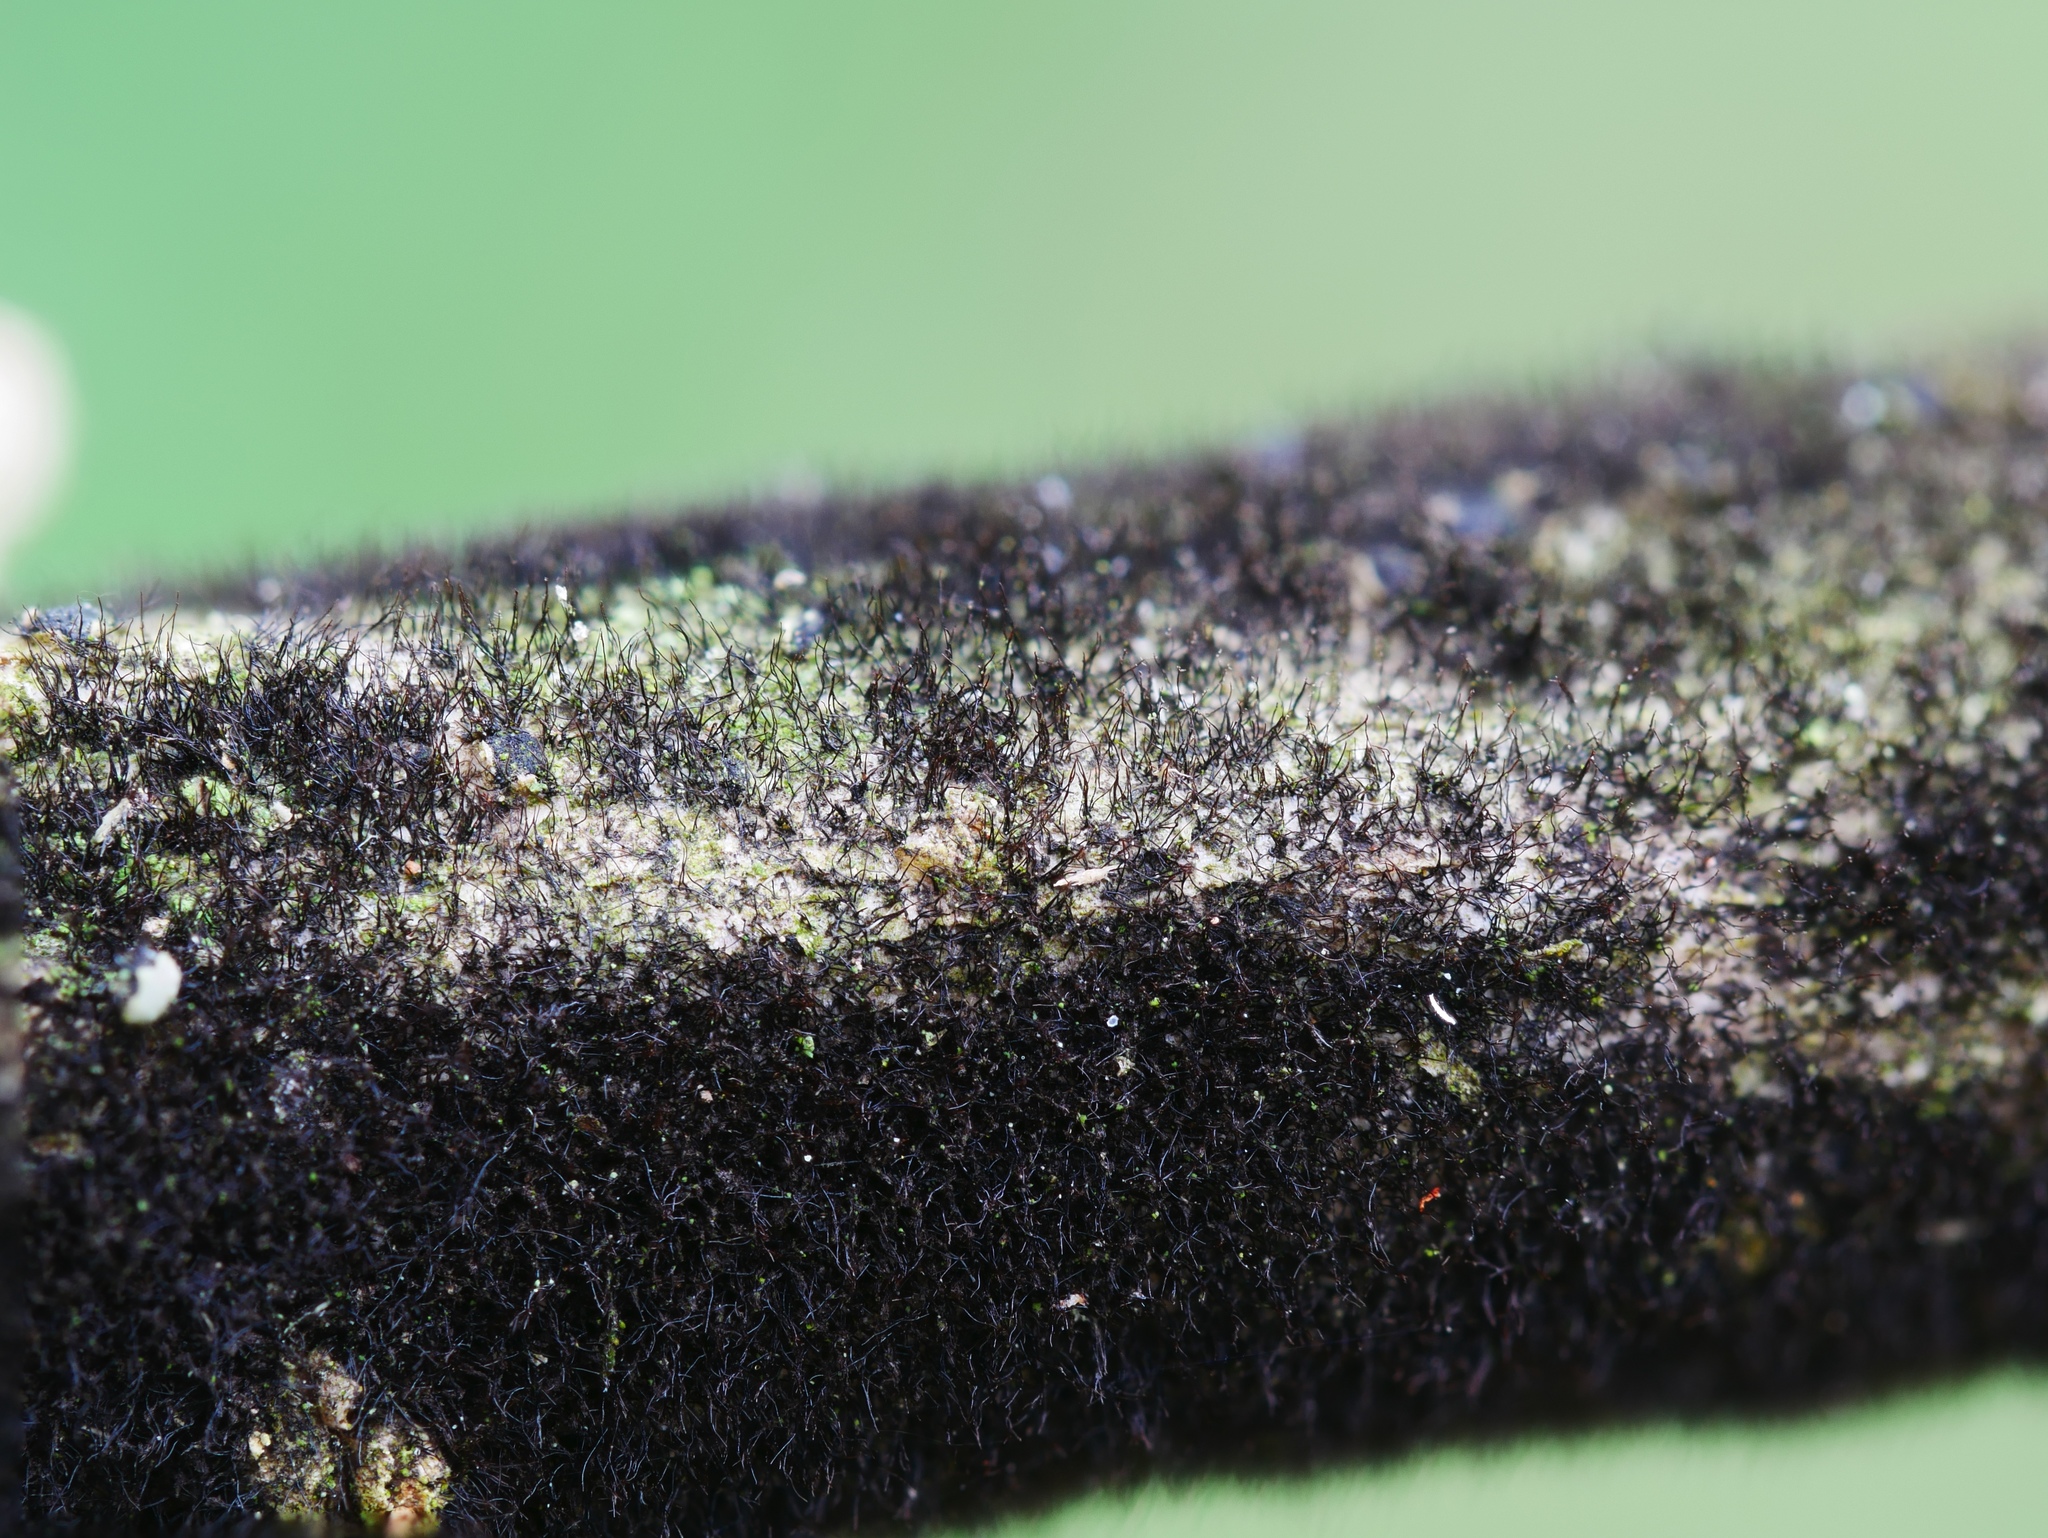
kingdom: Fungi
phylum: Ascomycota
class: Dothideomycetes
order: Pleosporales
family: Massarinaceae
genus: Helminthosporium
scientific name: Helminthosporium velutinum
